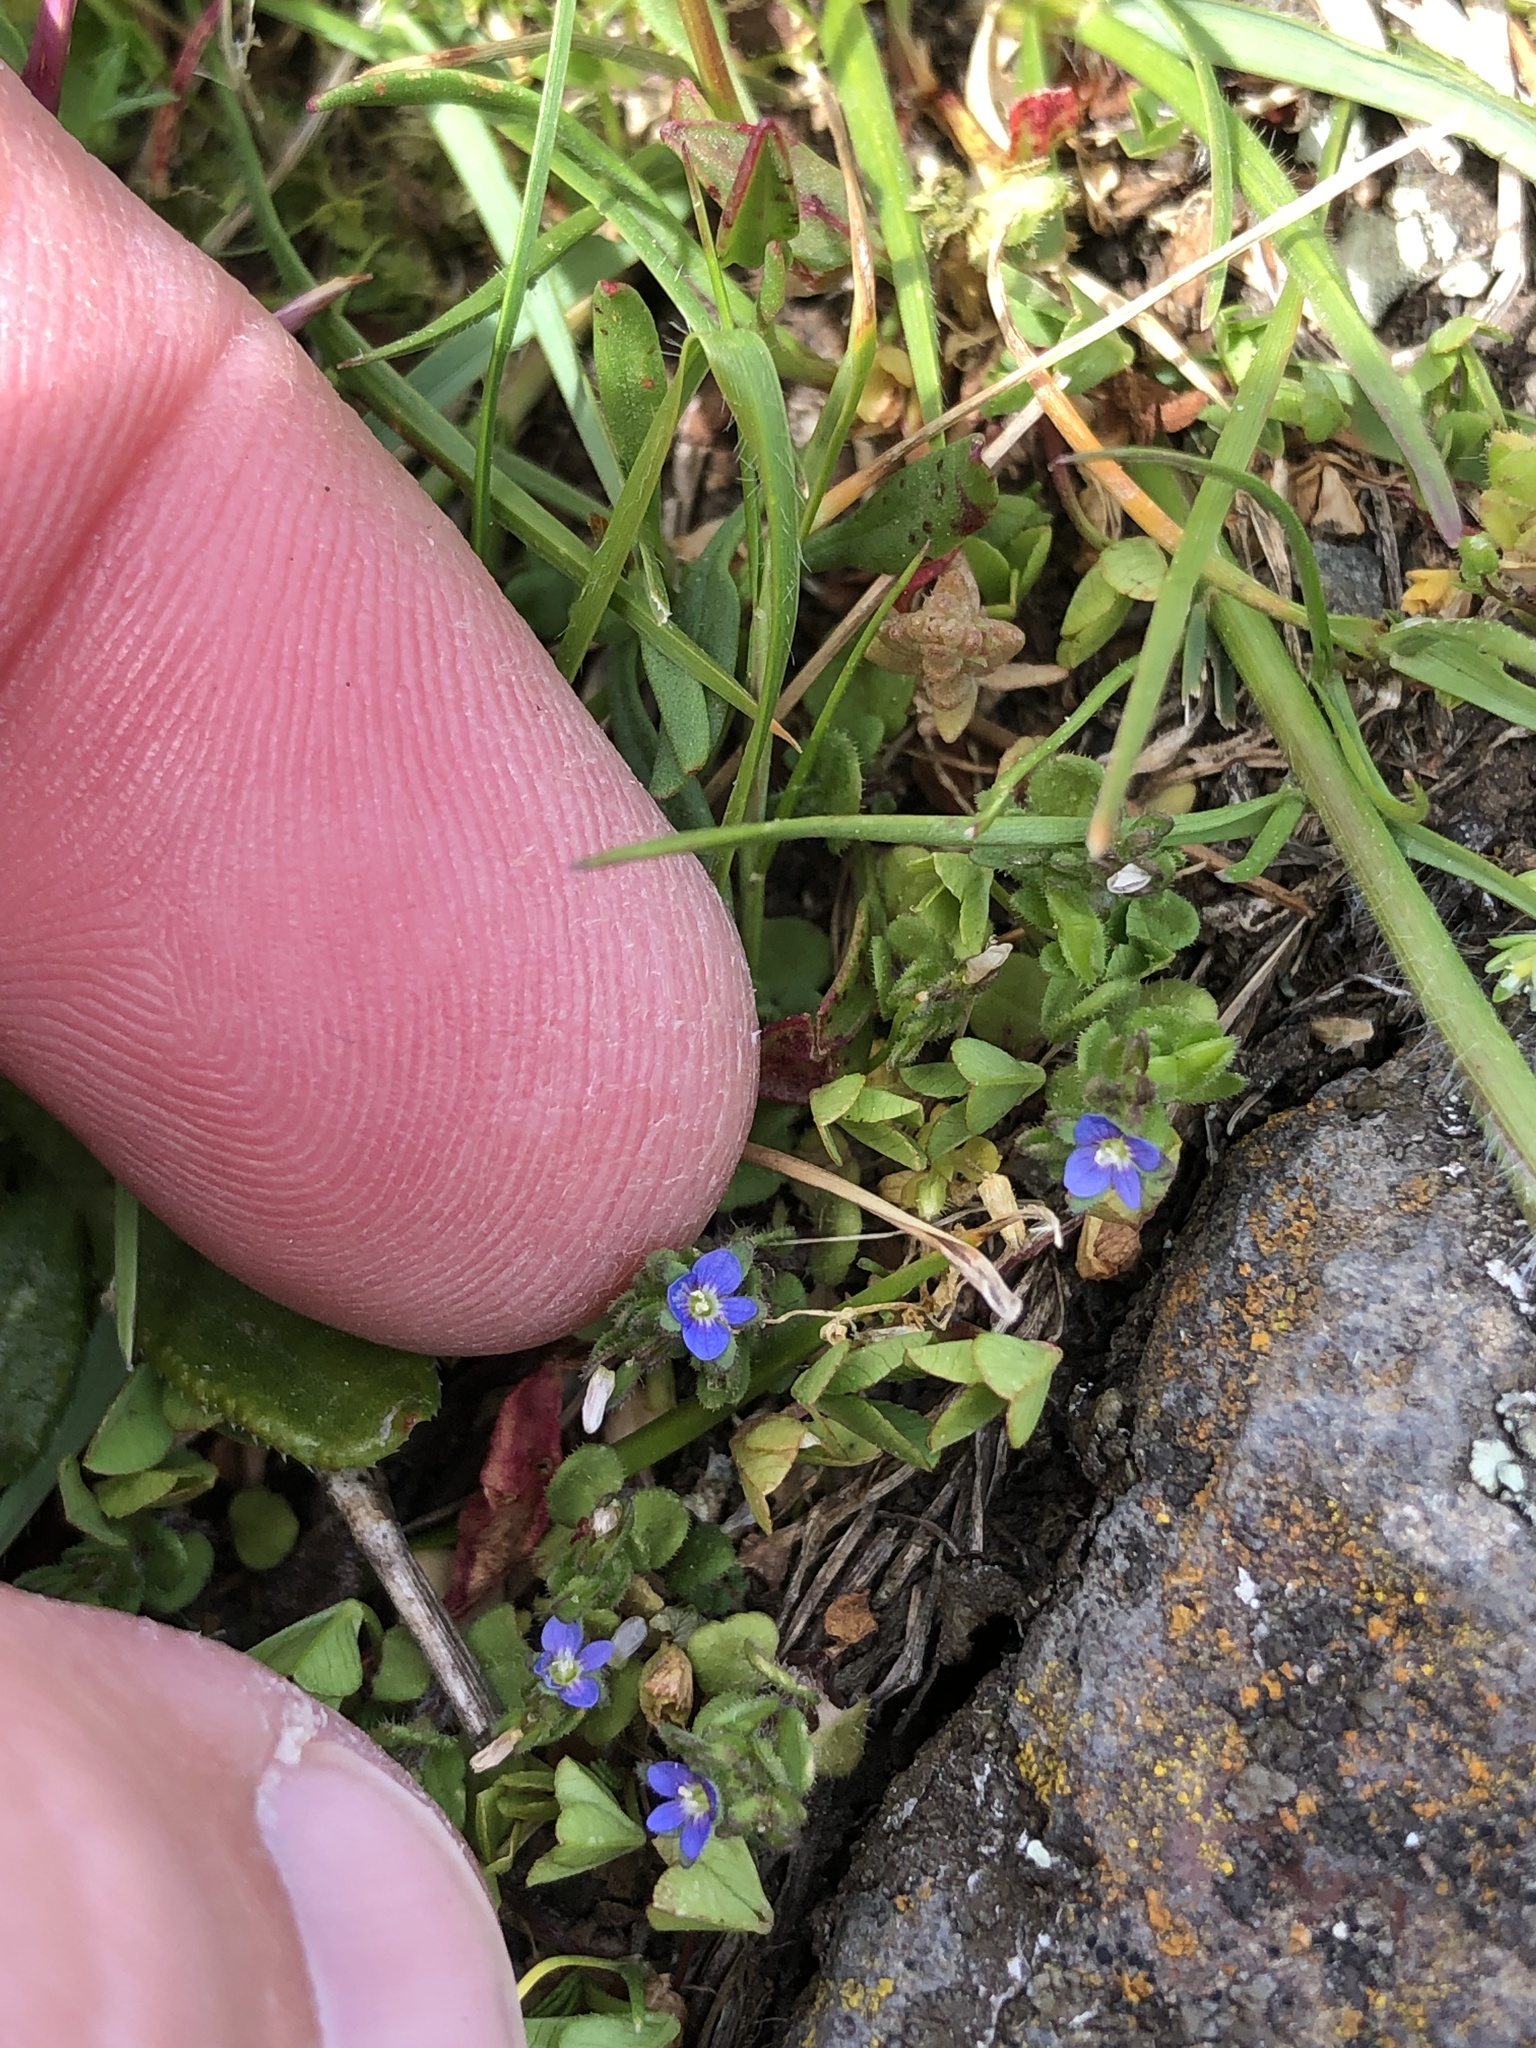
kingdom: Plantae
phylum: Tracheophyta
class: Magnoliopsida
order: Lamiales
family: Plantaginaceae
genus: Veronica
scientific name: Veronica arvensis
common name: Corn speedwell
